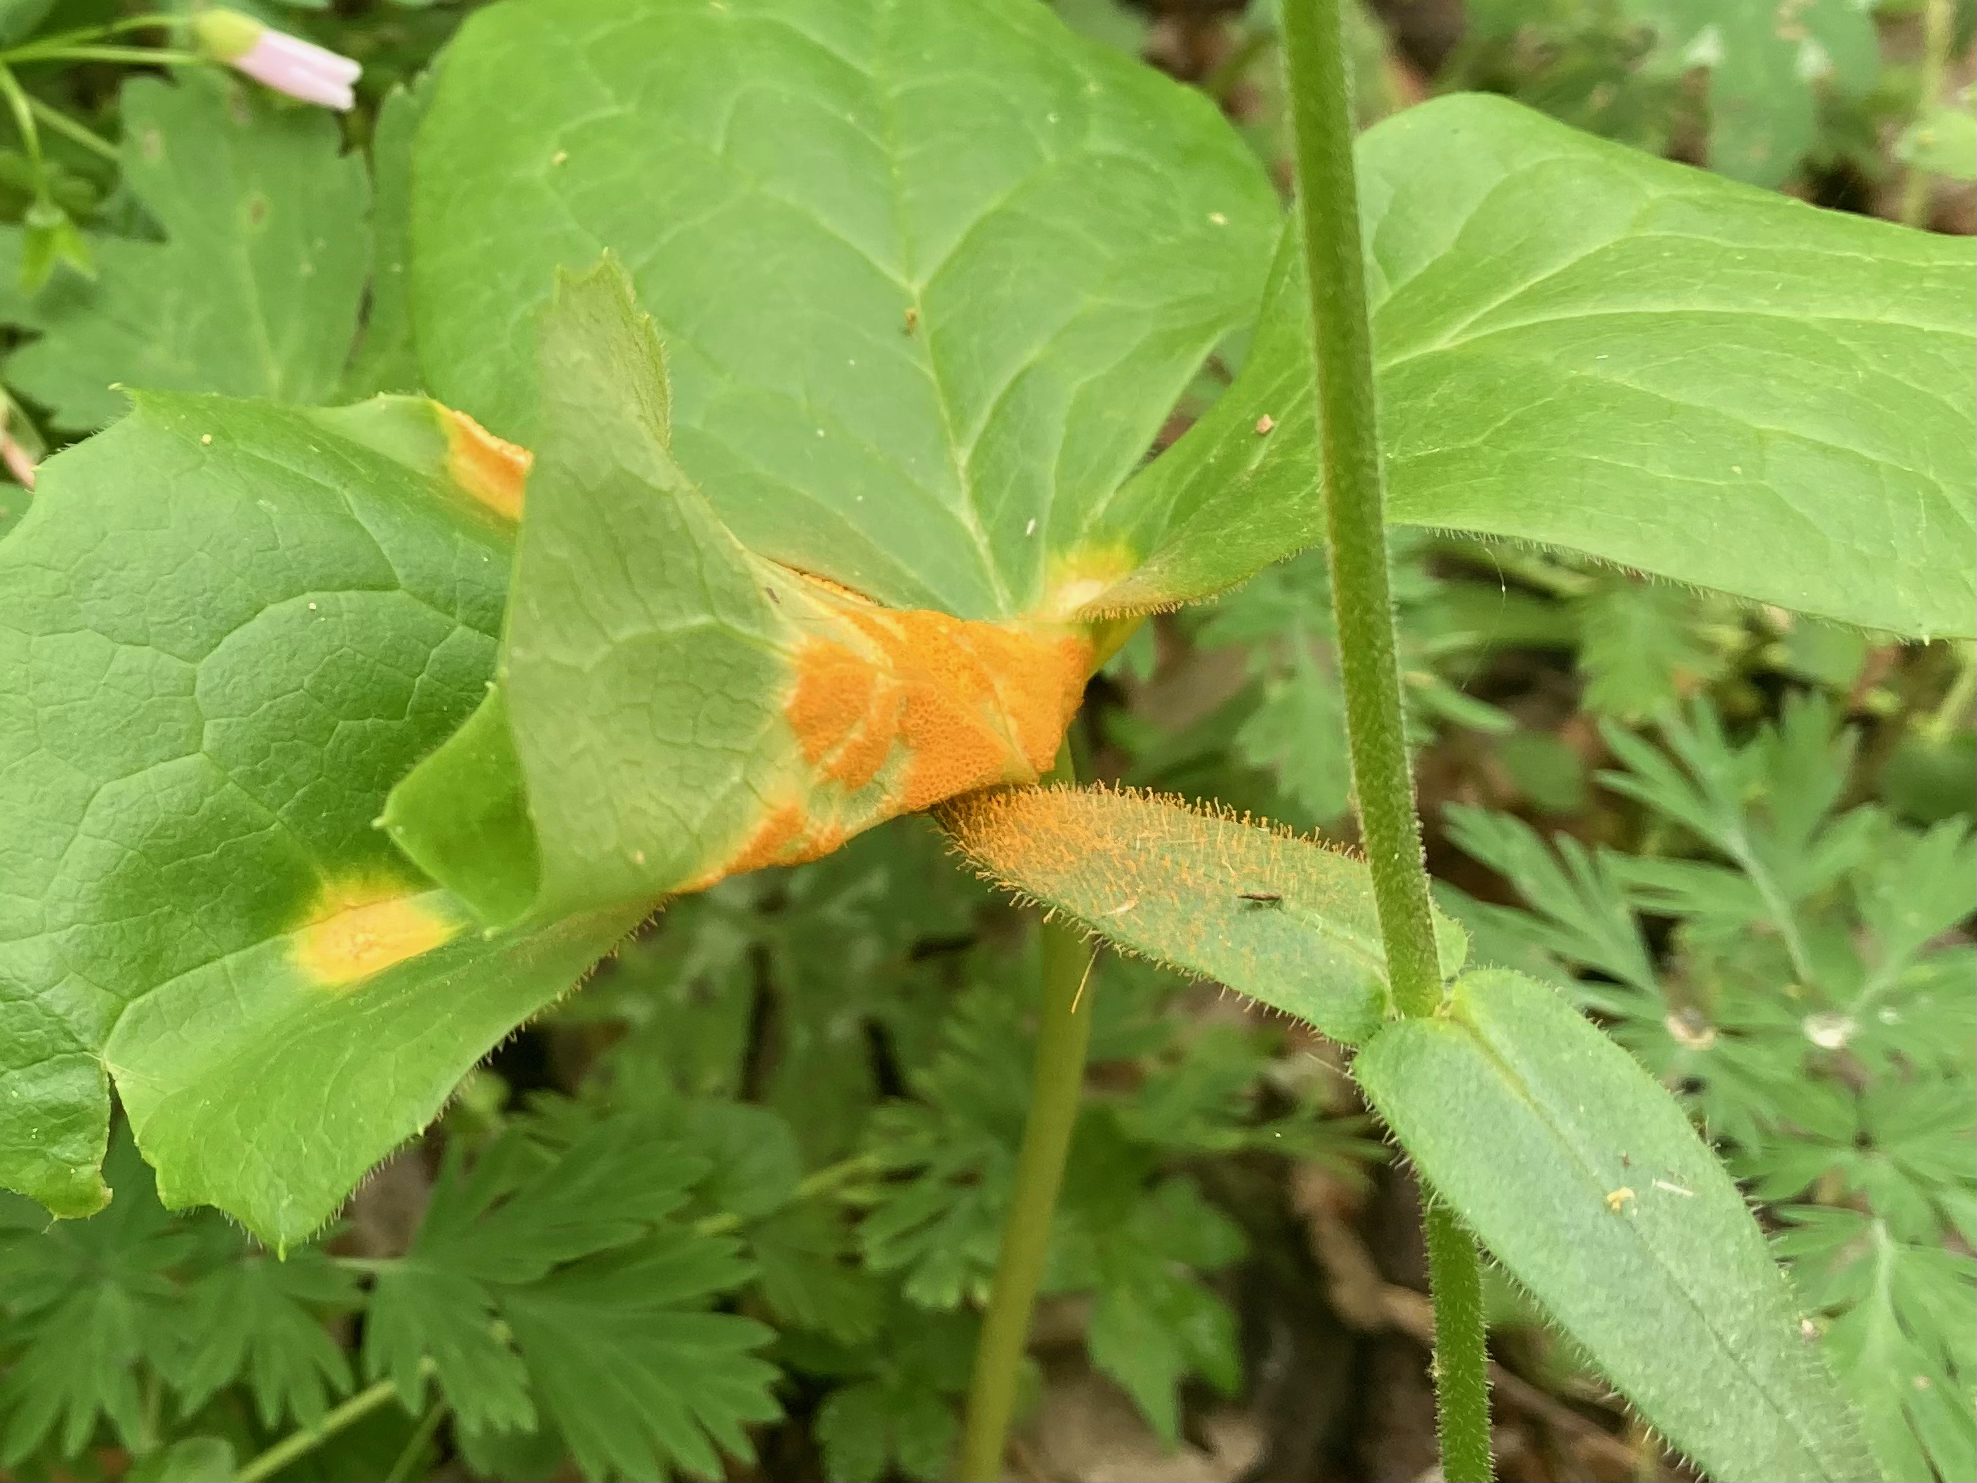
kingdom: Fungi
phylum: Basidiomycota
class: Pucciniomycetes
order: Pucciniales
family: Pucciniaceae
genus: Puccinia
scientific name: Puccinia podophylli
